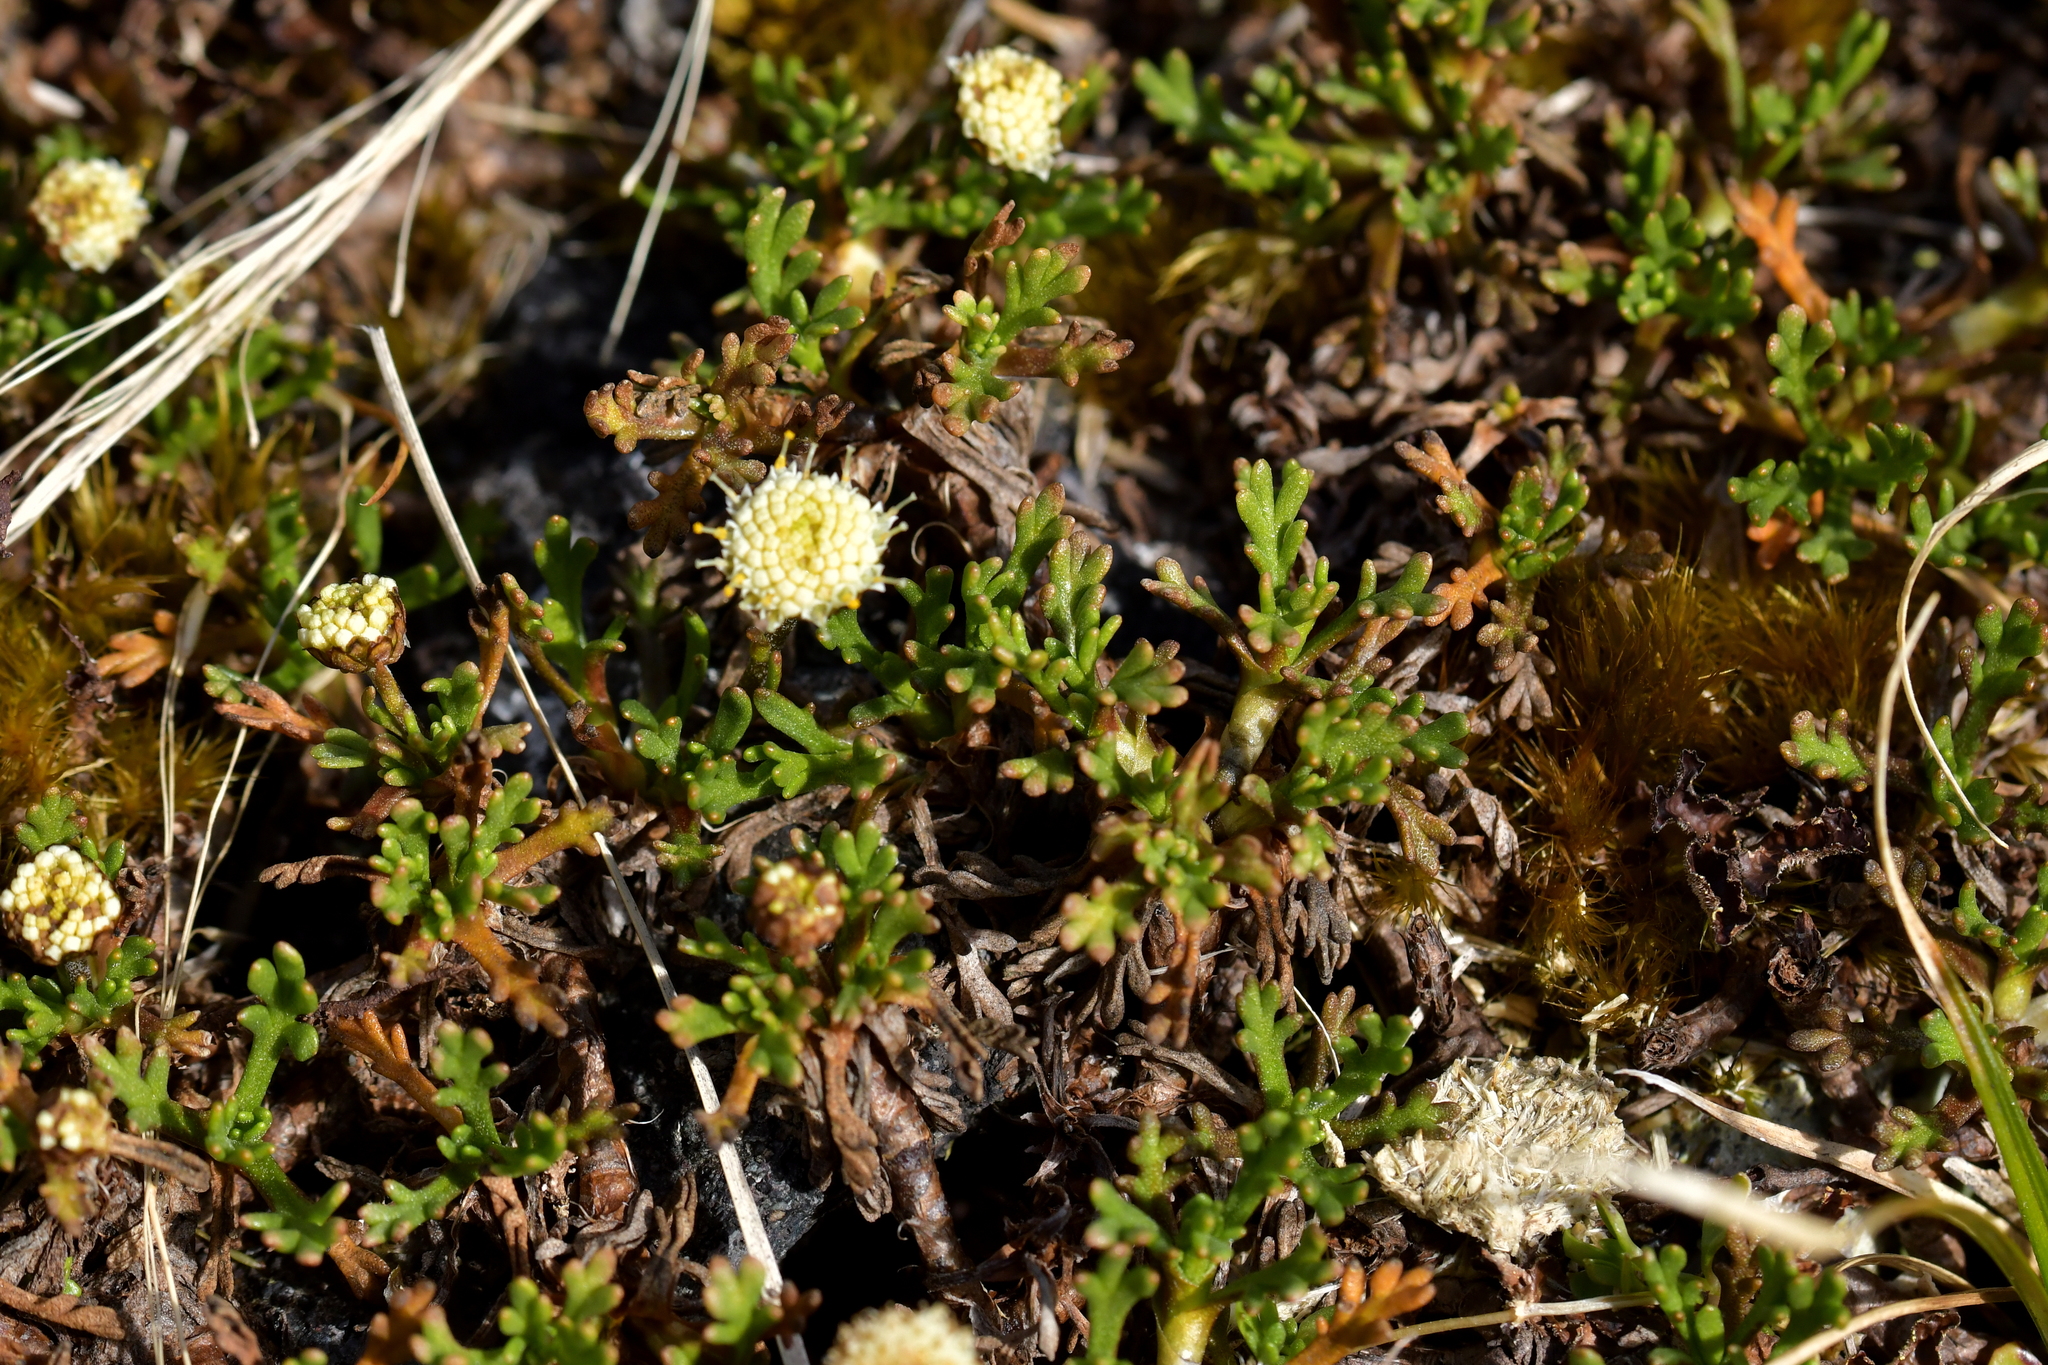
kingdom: Plantae
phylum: Tracheophyta
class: Magnoliopsida
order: Asterales
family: Asteraceae
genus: Leptinella
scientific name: Leptinella pyrethrifolia
